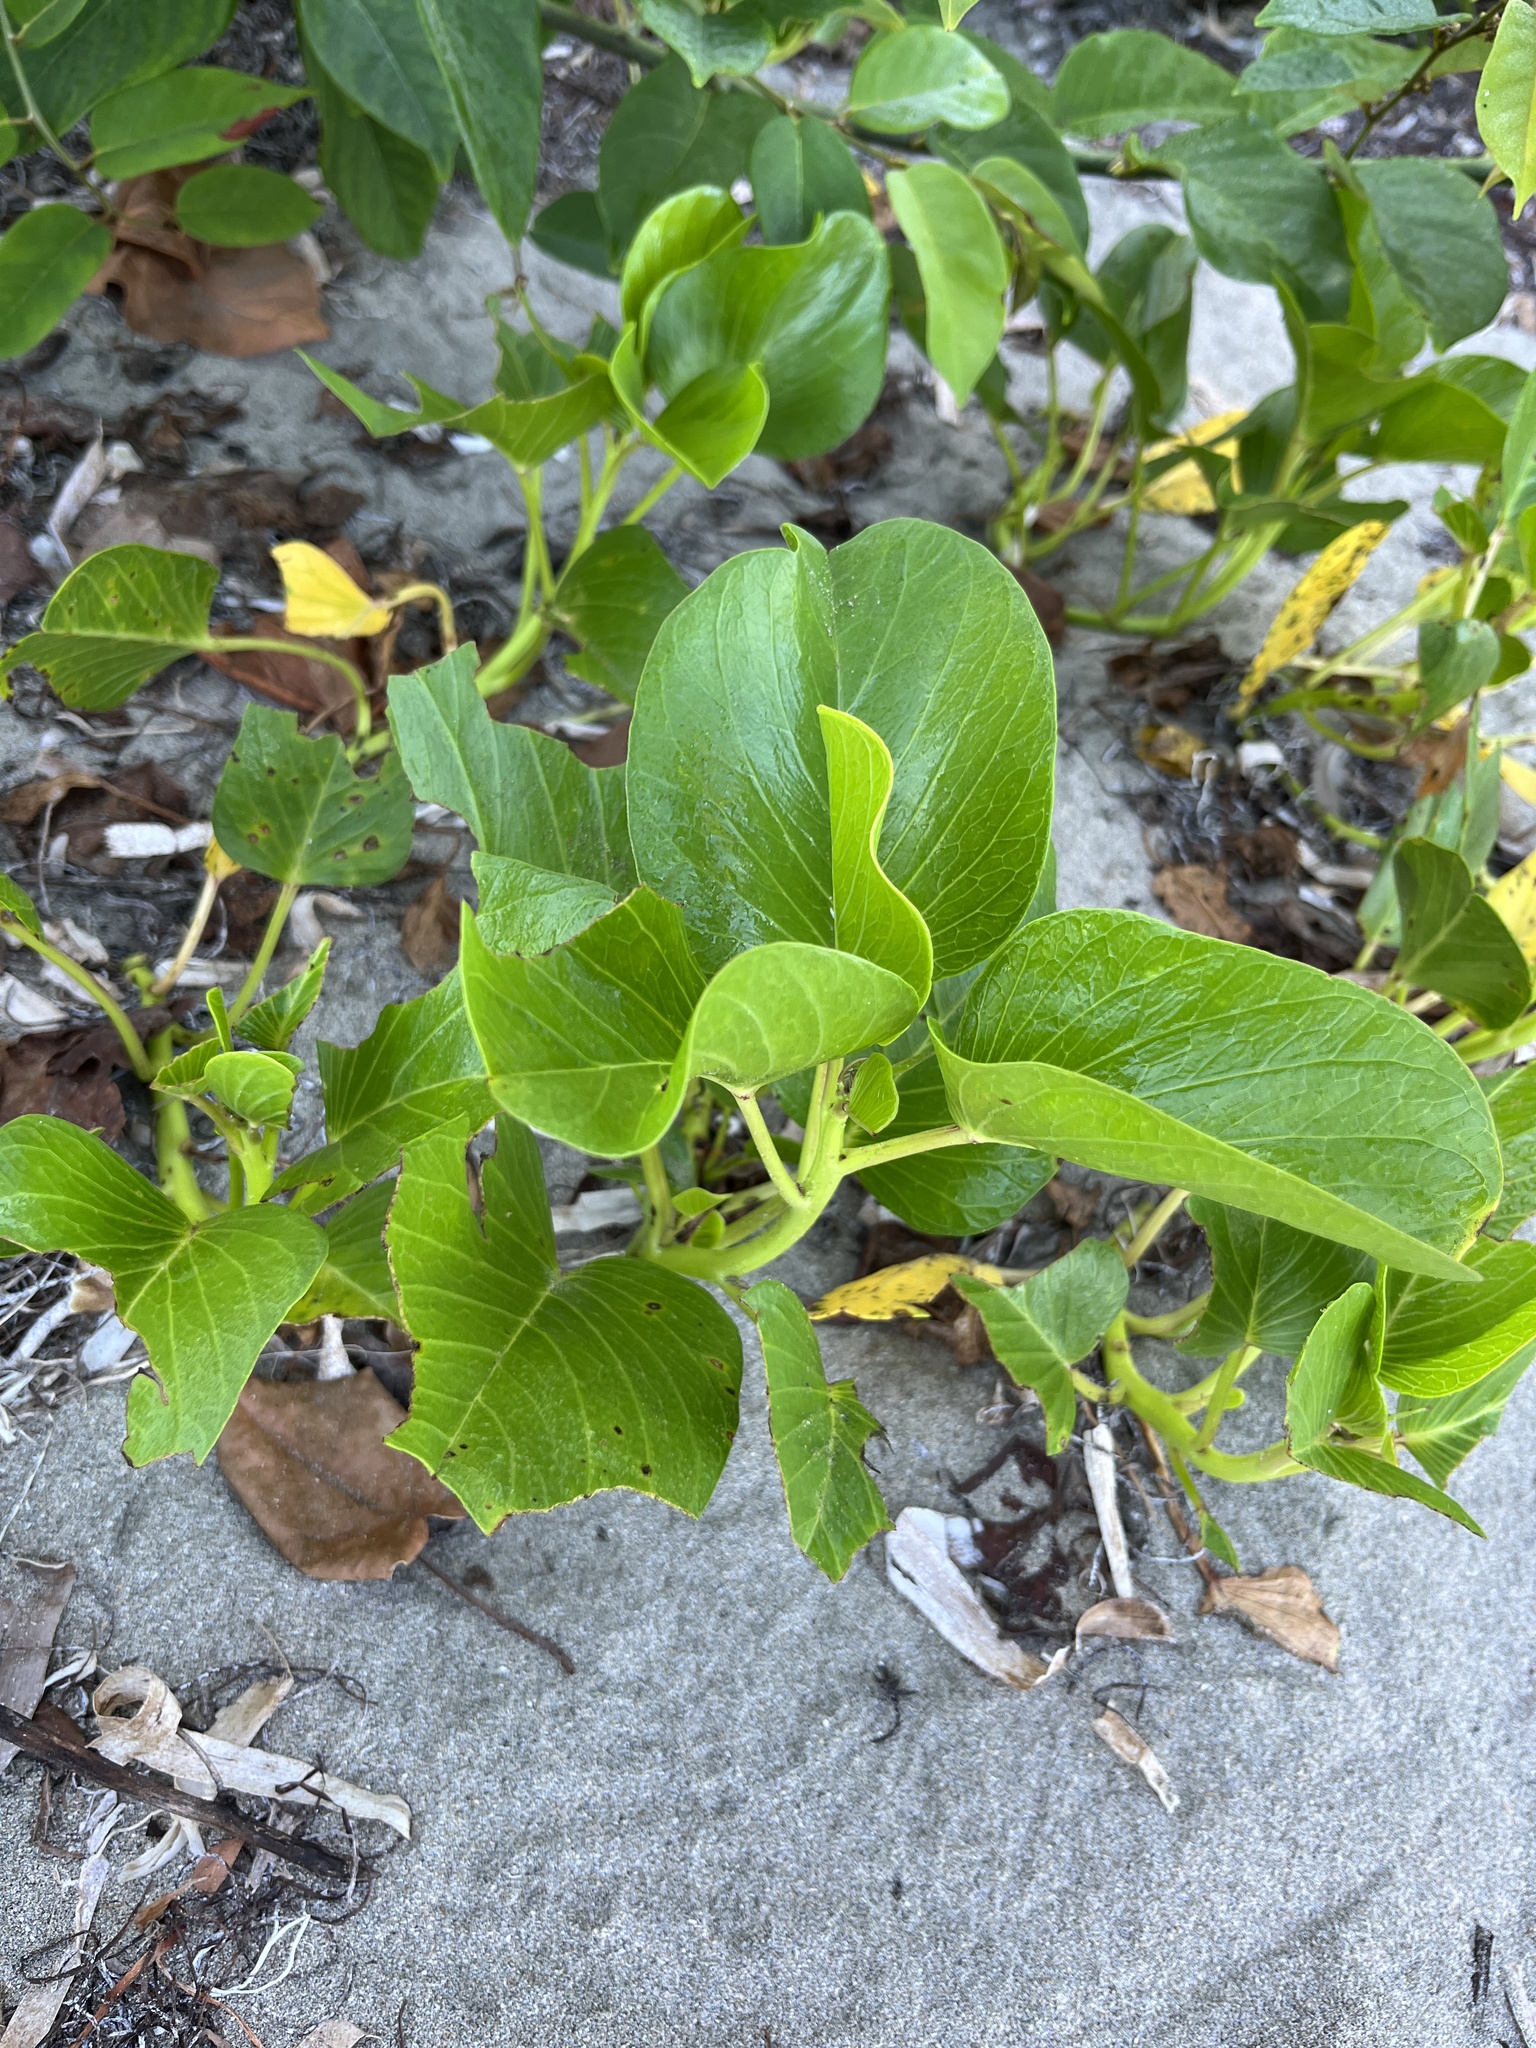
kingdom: Plantae
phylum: Tracheophyta
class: Magnoliopsida
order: Solanales
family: Convolvulaceae
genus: Ipomoea
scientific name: Ipomoea pes-caprae
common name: Beach morning glory
